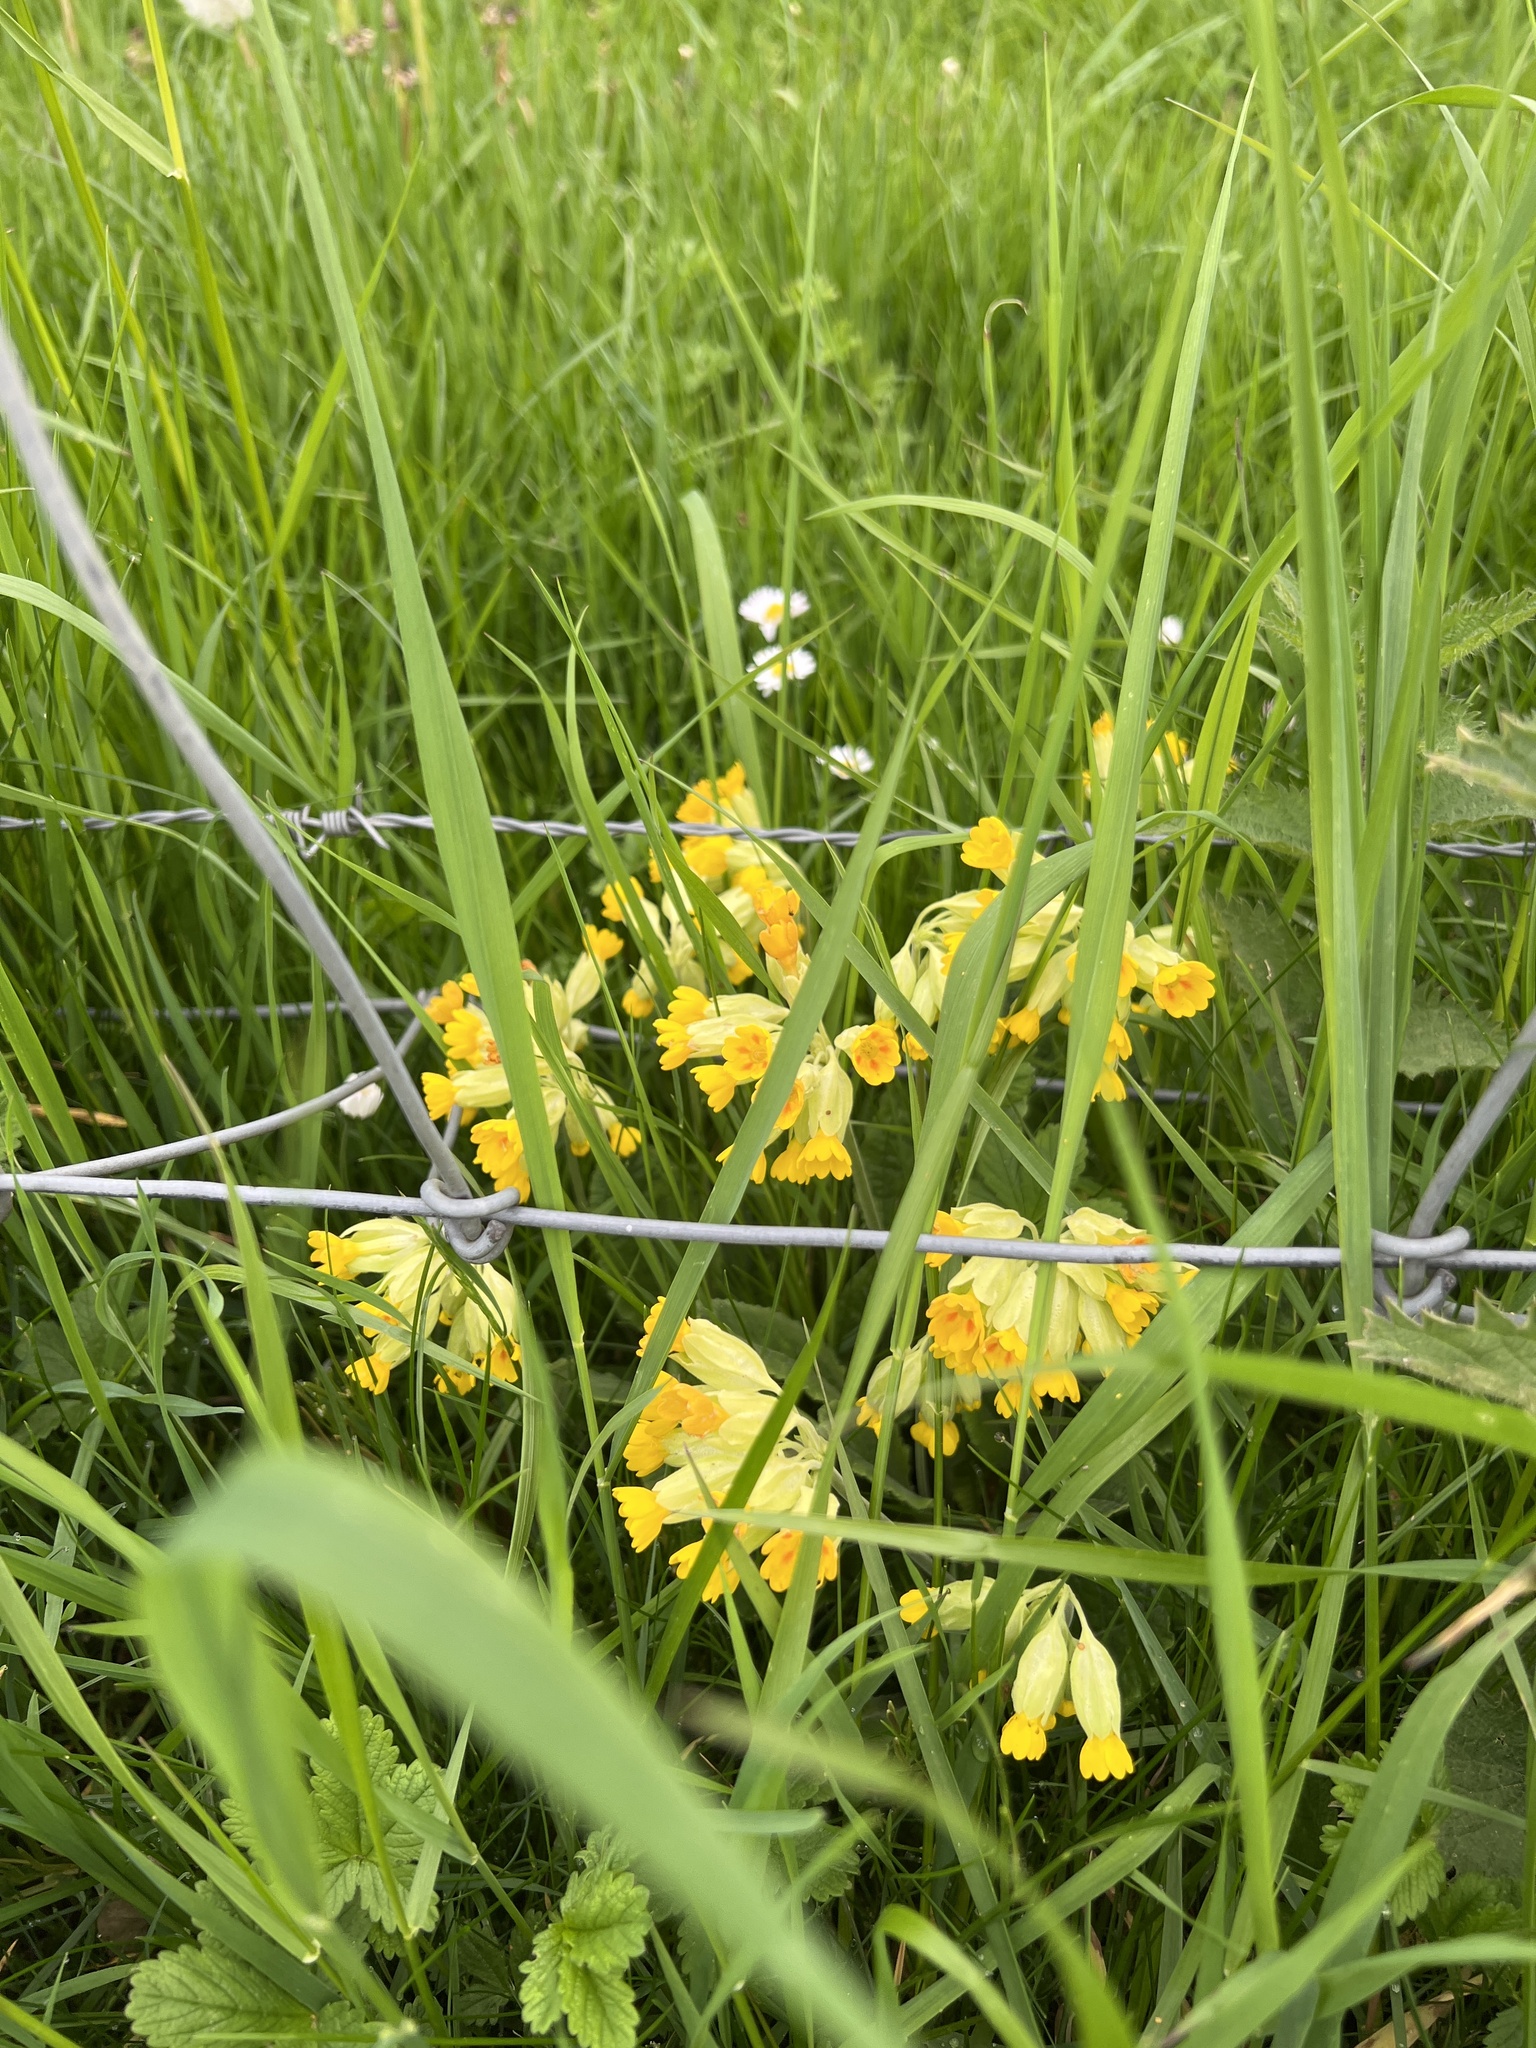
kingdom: Plantae
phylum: Tracheophyta
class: Magnoliopsida
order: Ericales
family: Primulaceae
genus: Primula
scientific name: Primula veris
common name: Cowslip
